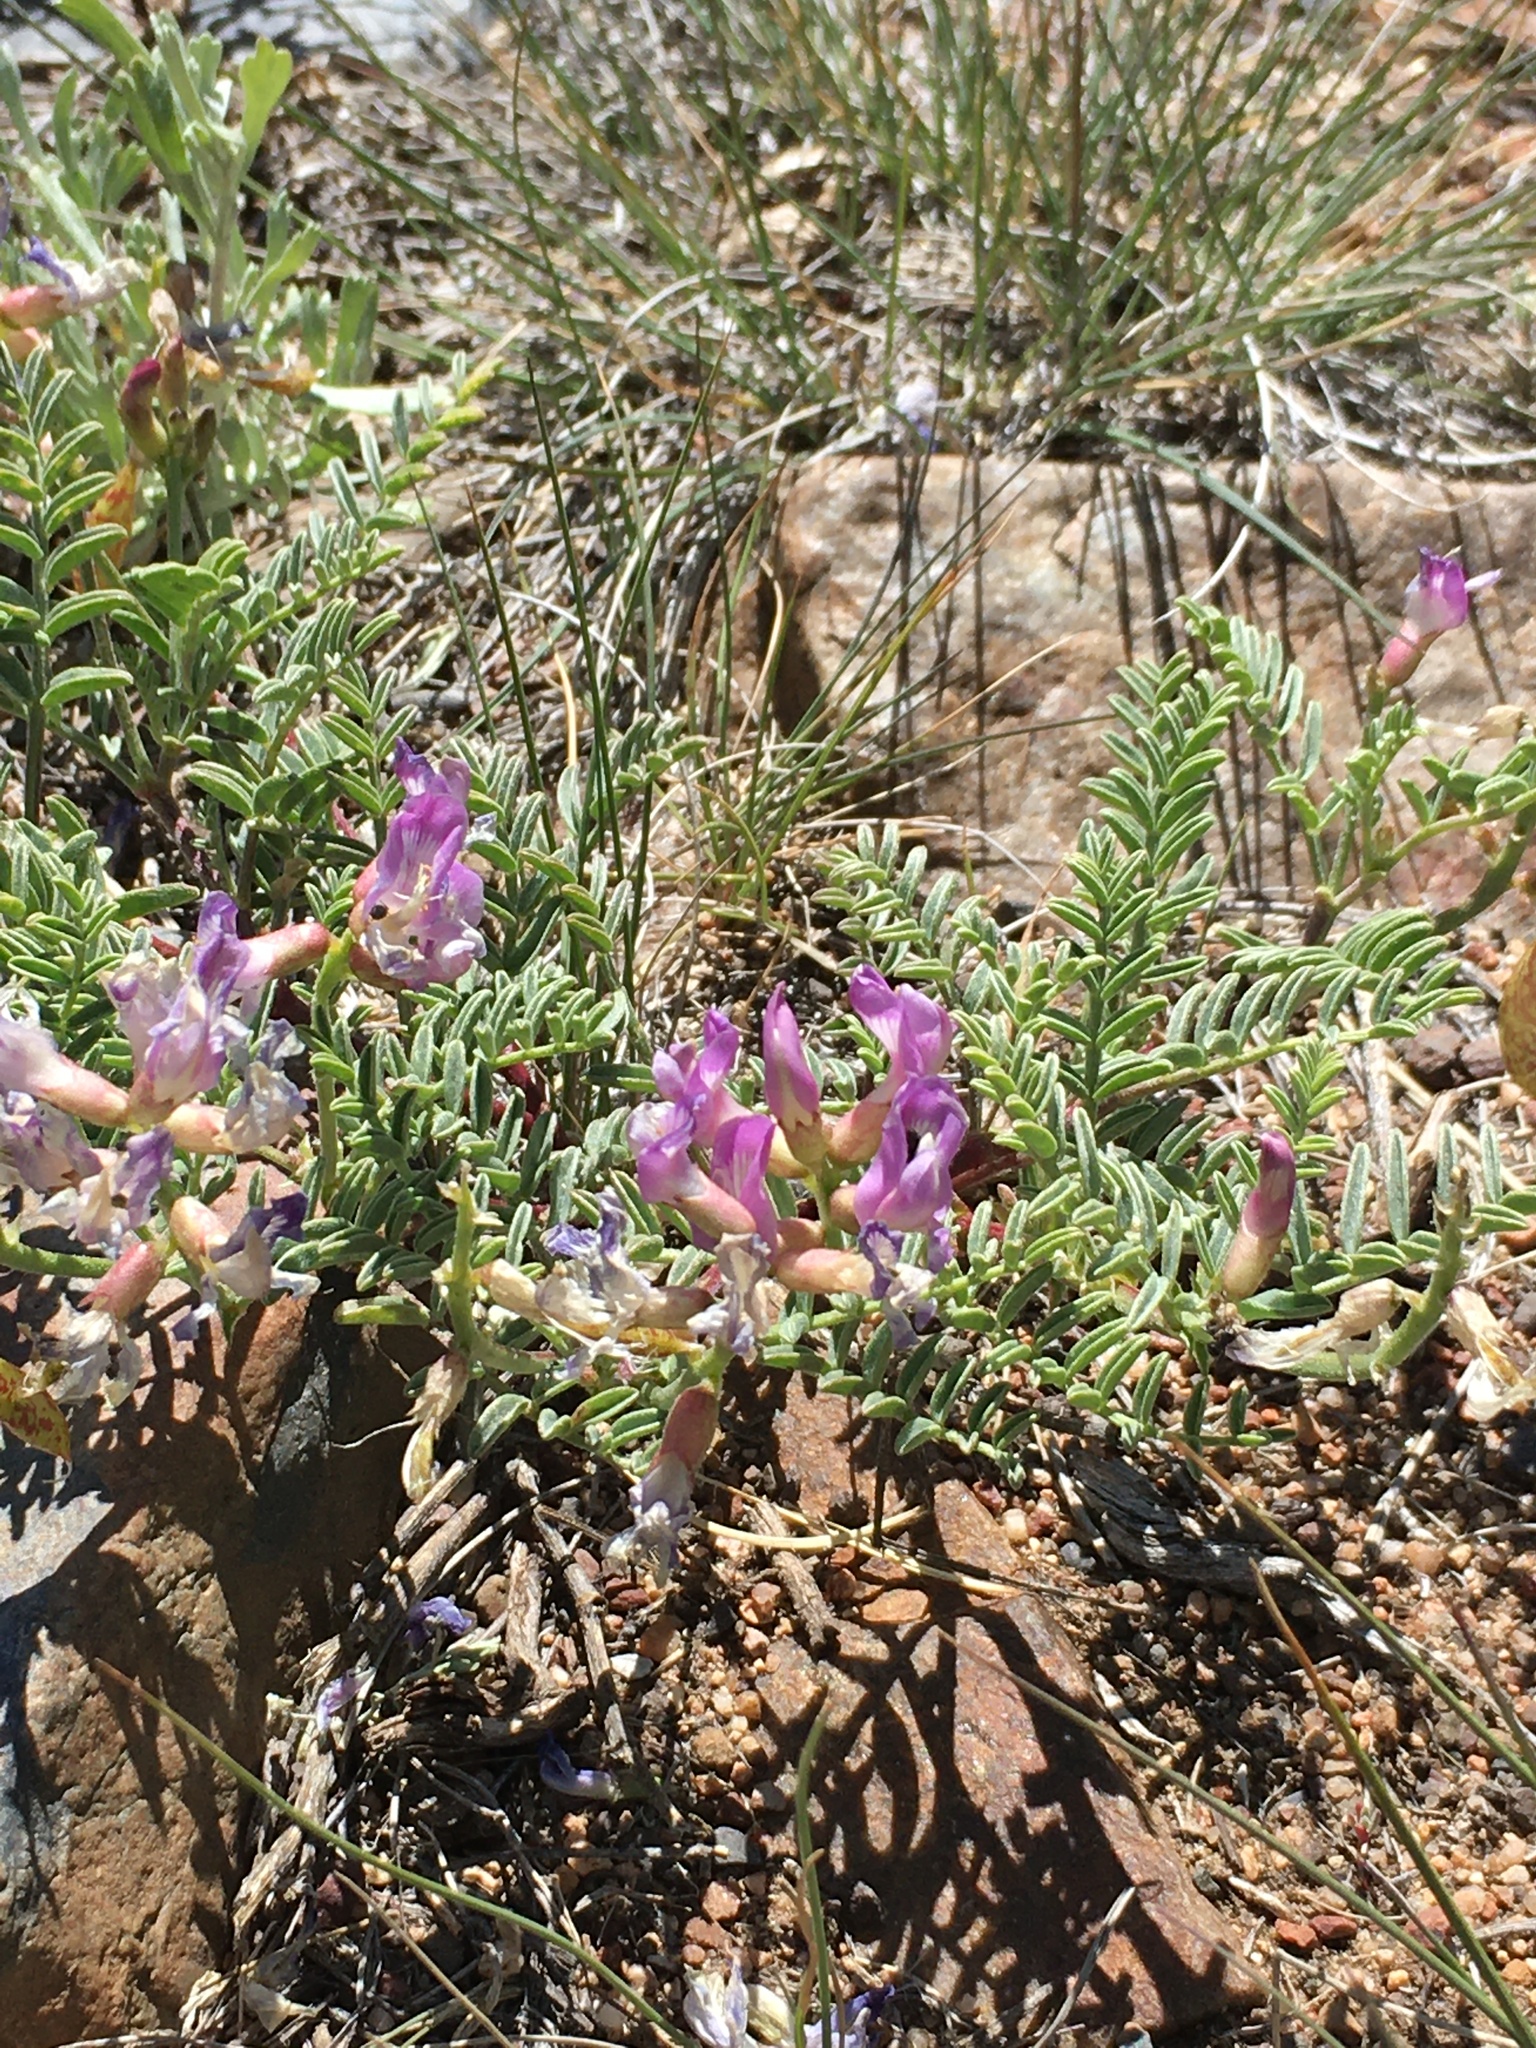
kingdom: Plantae
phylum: Tracheophyta
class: Magnoliopsida
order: Fabales
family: Fabaceae
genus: Astragalus
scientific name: Astragalus whitneyi
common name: Balloonpod milkvetch
